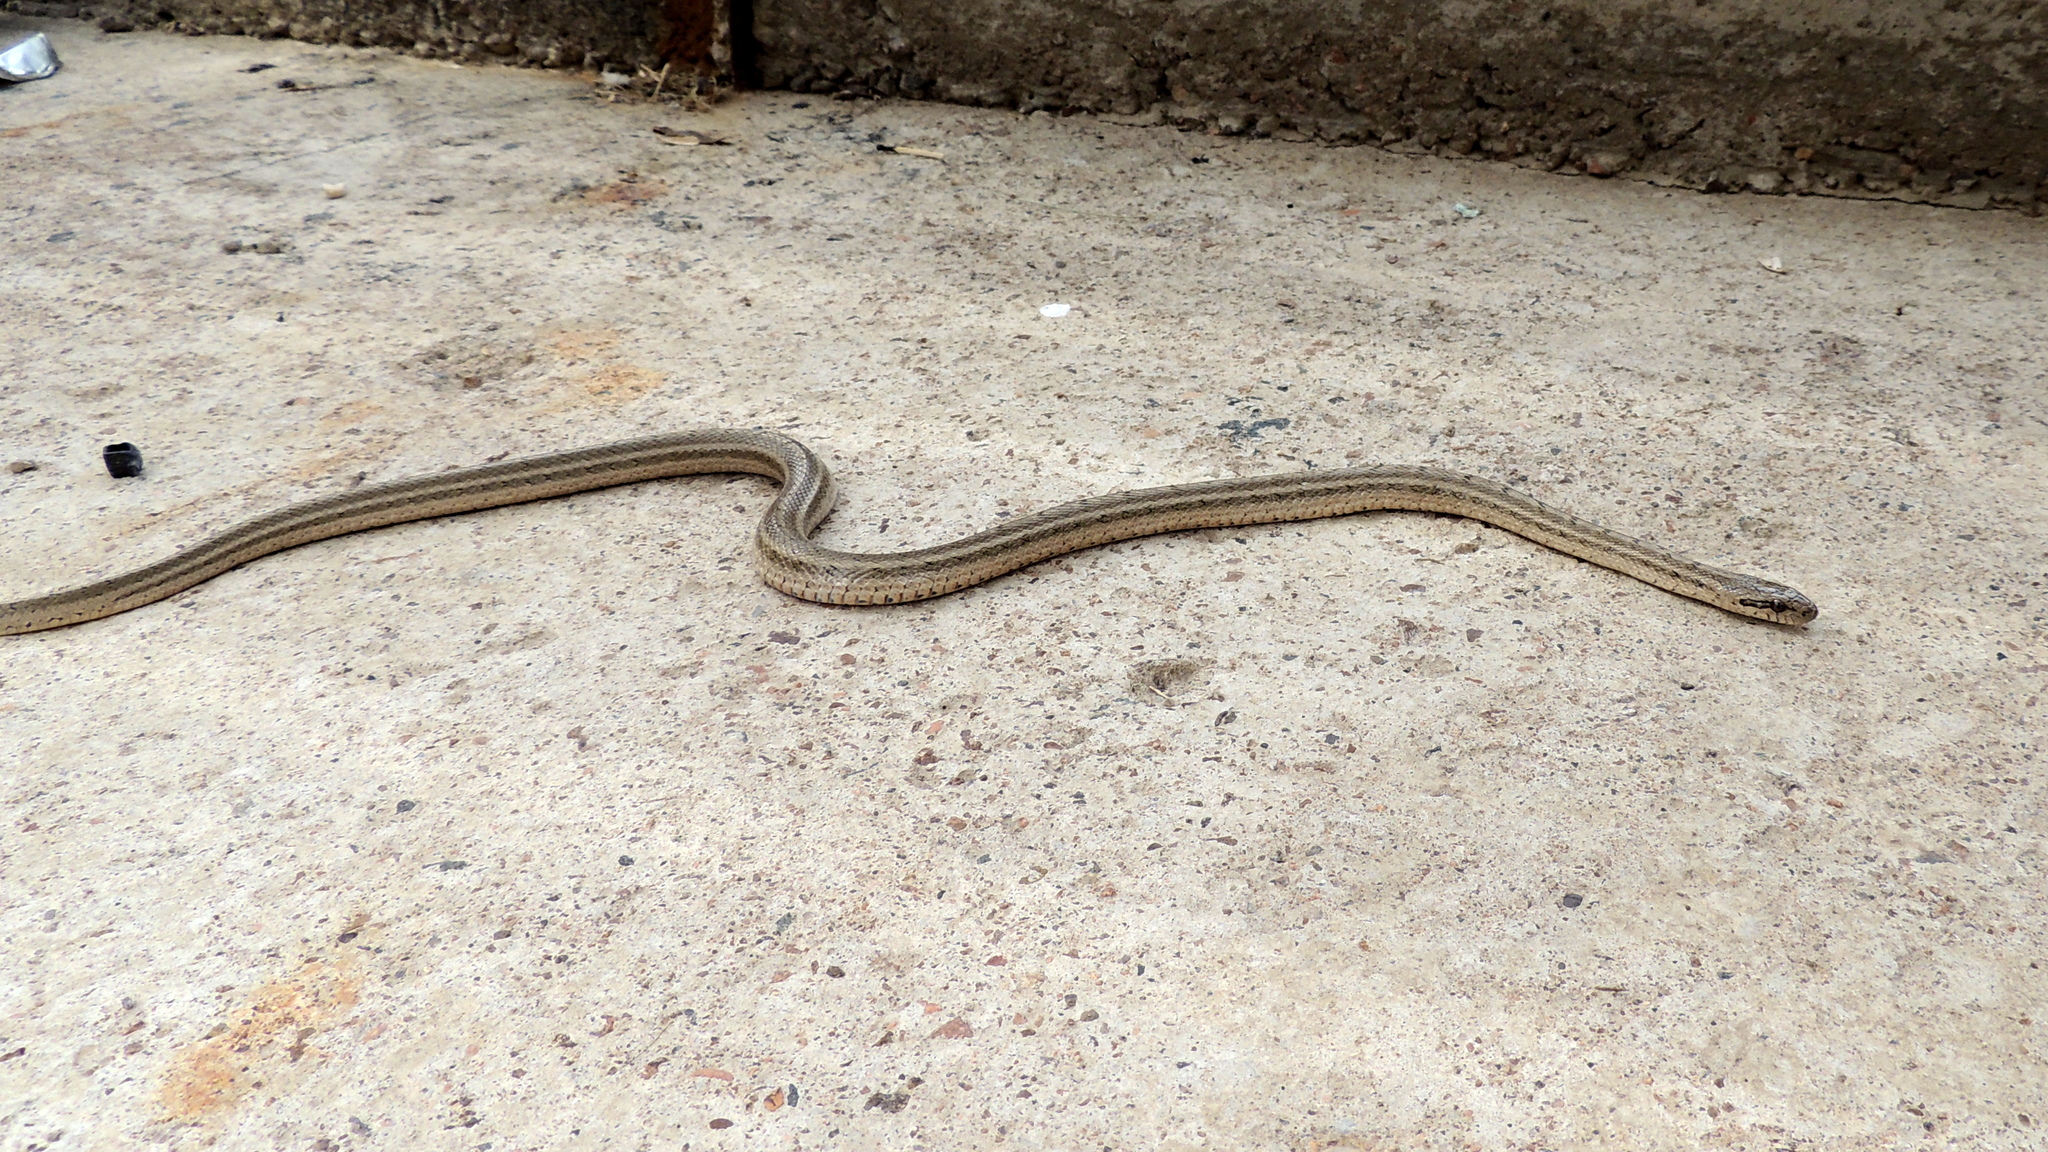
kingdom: Animalia
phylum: Chordata
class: Squamata
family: Colubridae
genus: Elaphe
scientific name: Elaphe dione
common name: Dione ratsnake
